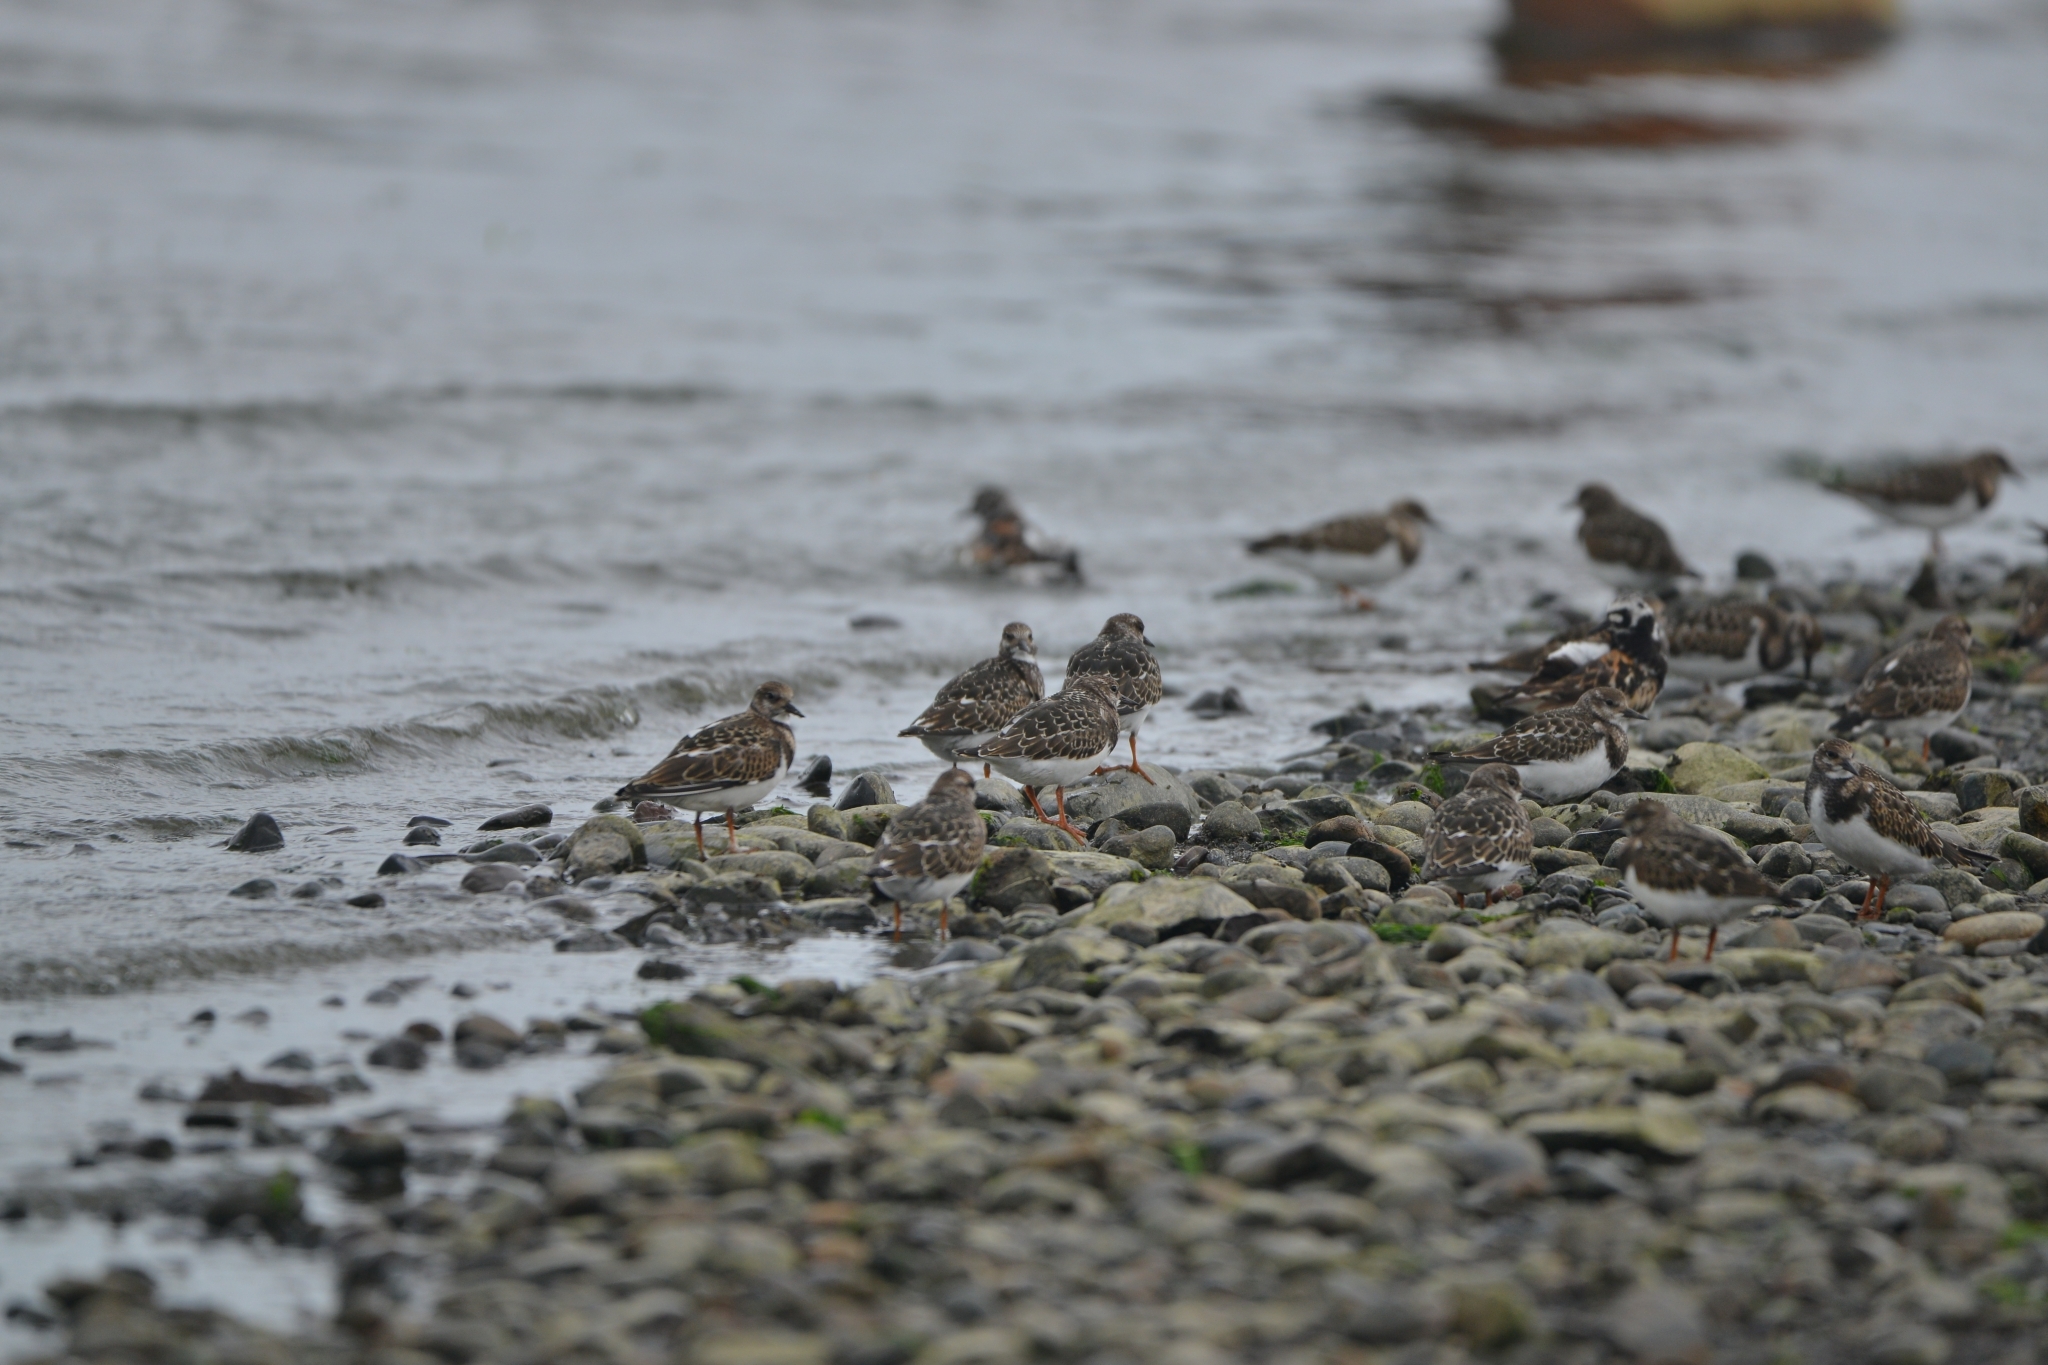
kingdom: Animalia
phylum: Chordata
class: Aves
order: Charadriiformes
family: Scolopacidae
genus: Arenaria
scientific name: Arenaria interpres
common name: Ruddy turnstone
